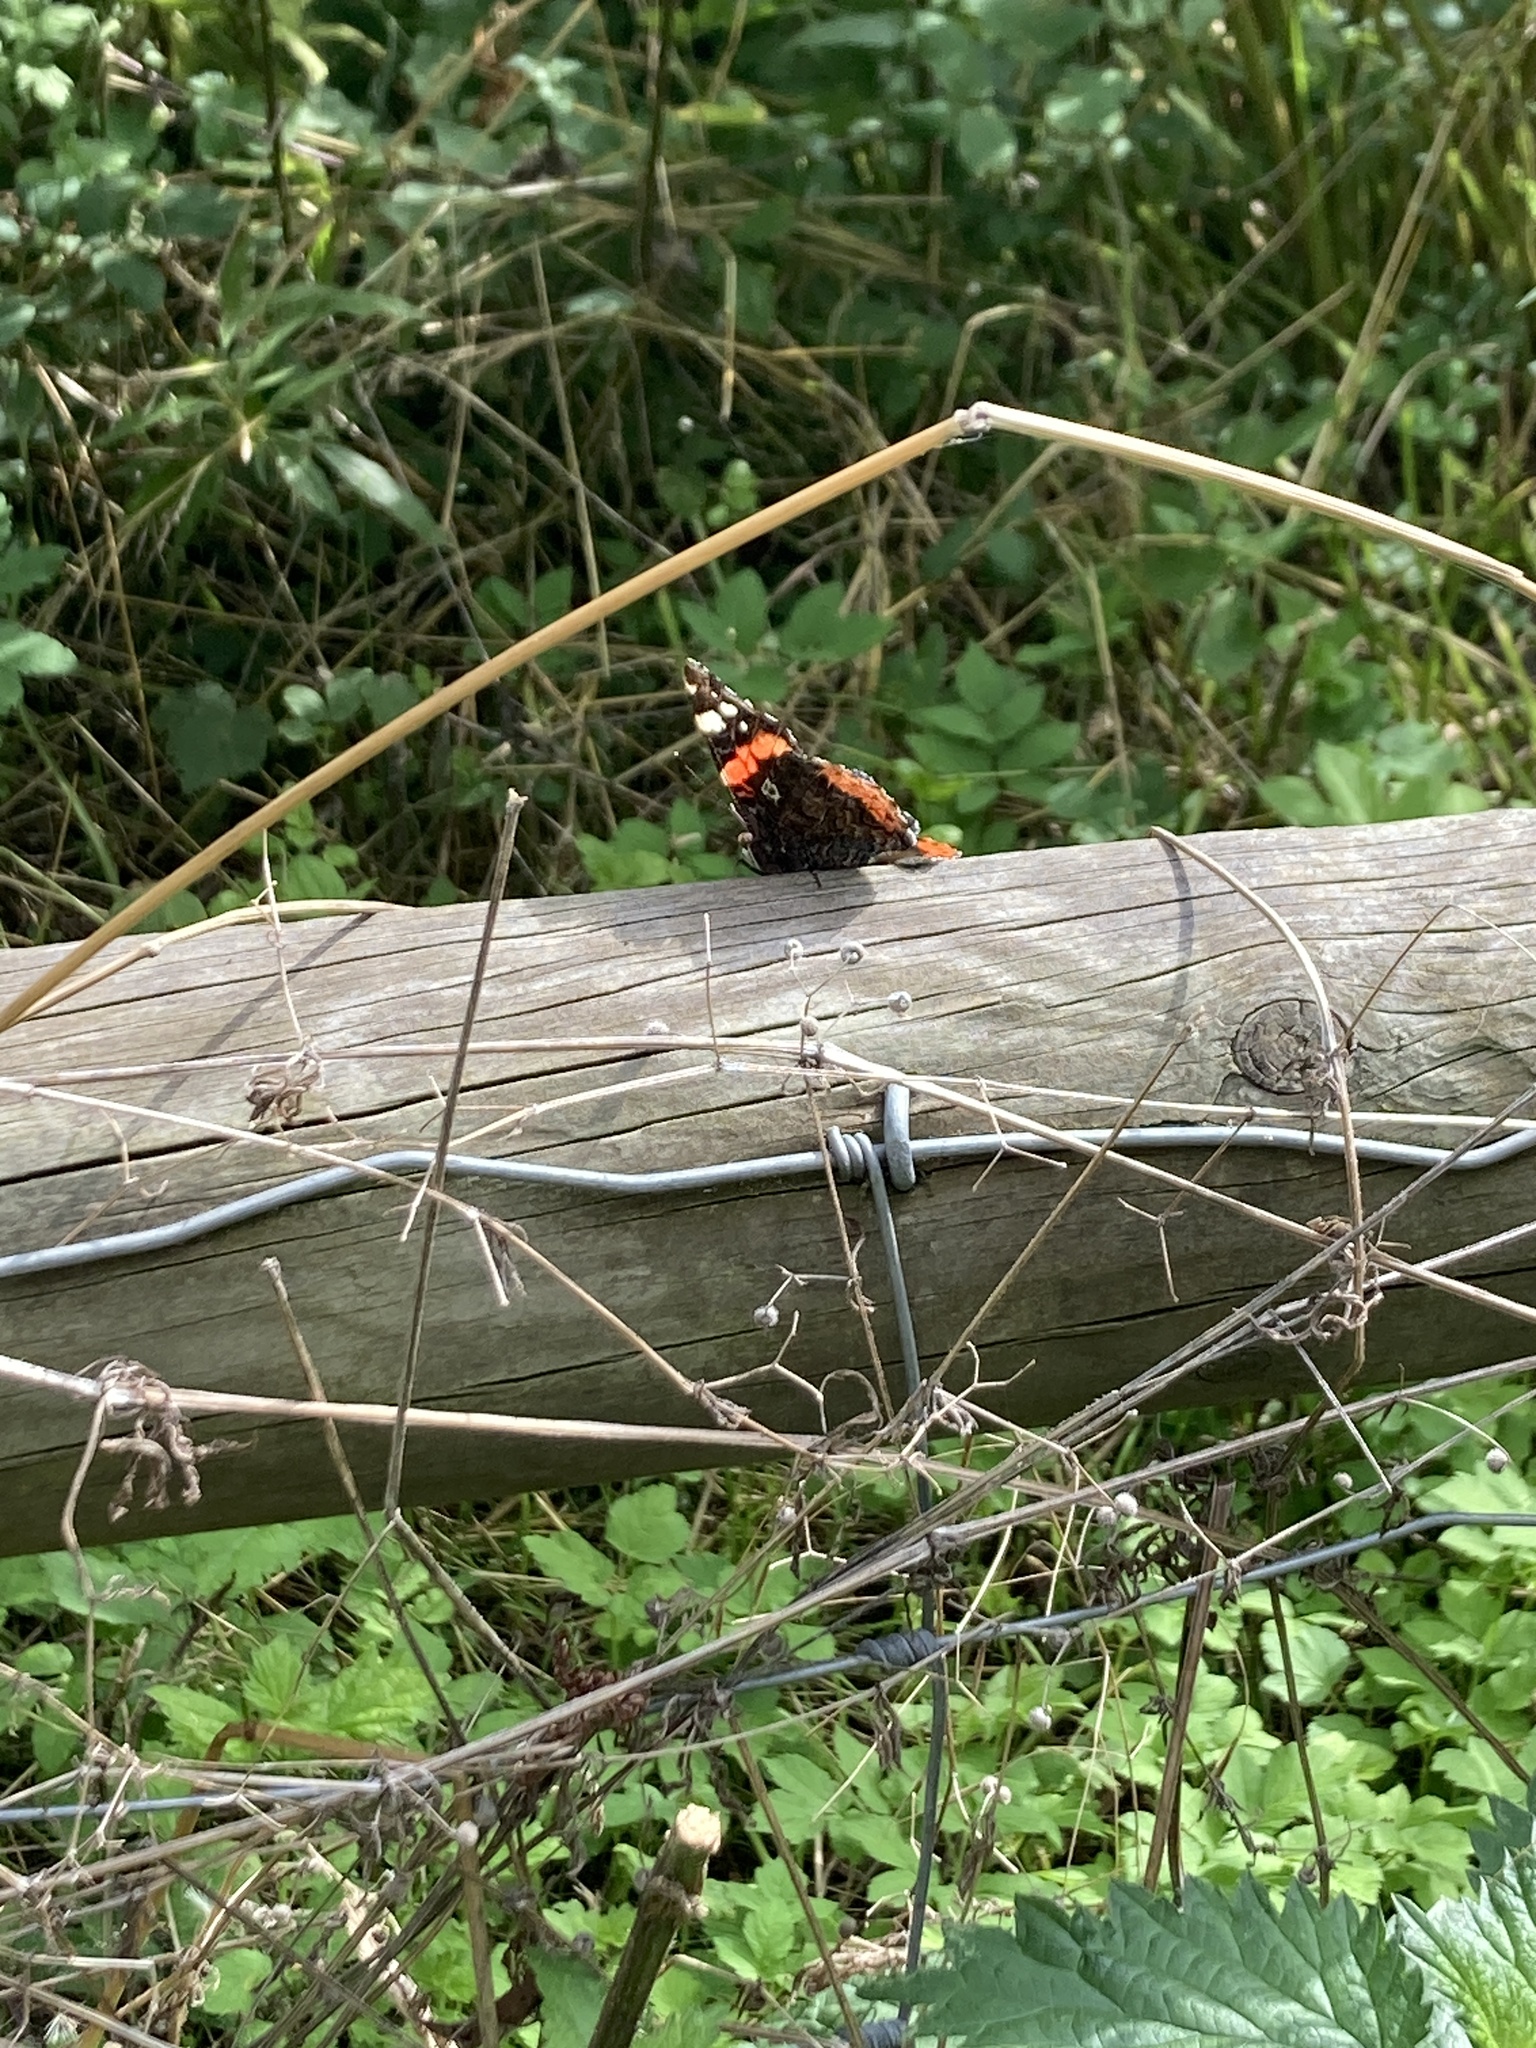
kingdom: Animalia
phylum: Arthropoda
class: Insecta
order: Lepidoptera
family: Nymphalidae
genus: Vanessa
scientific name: Vanessa atalanta
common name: Red admiral
